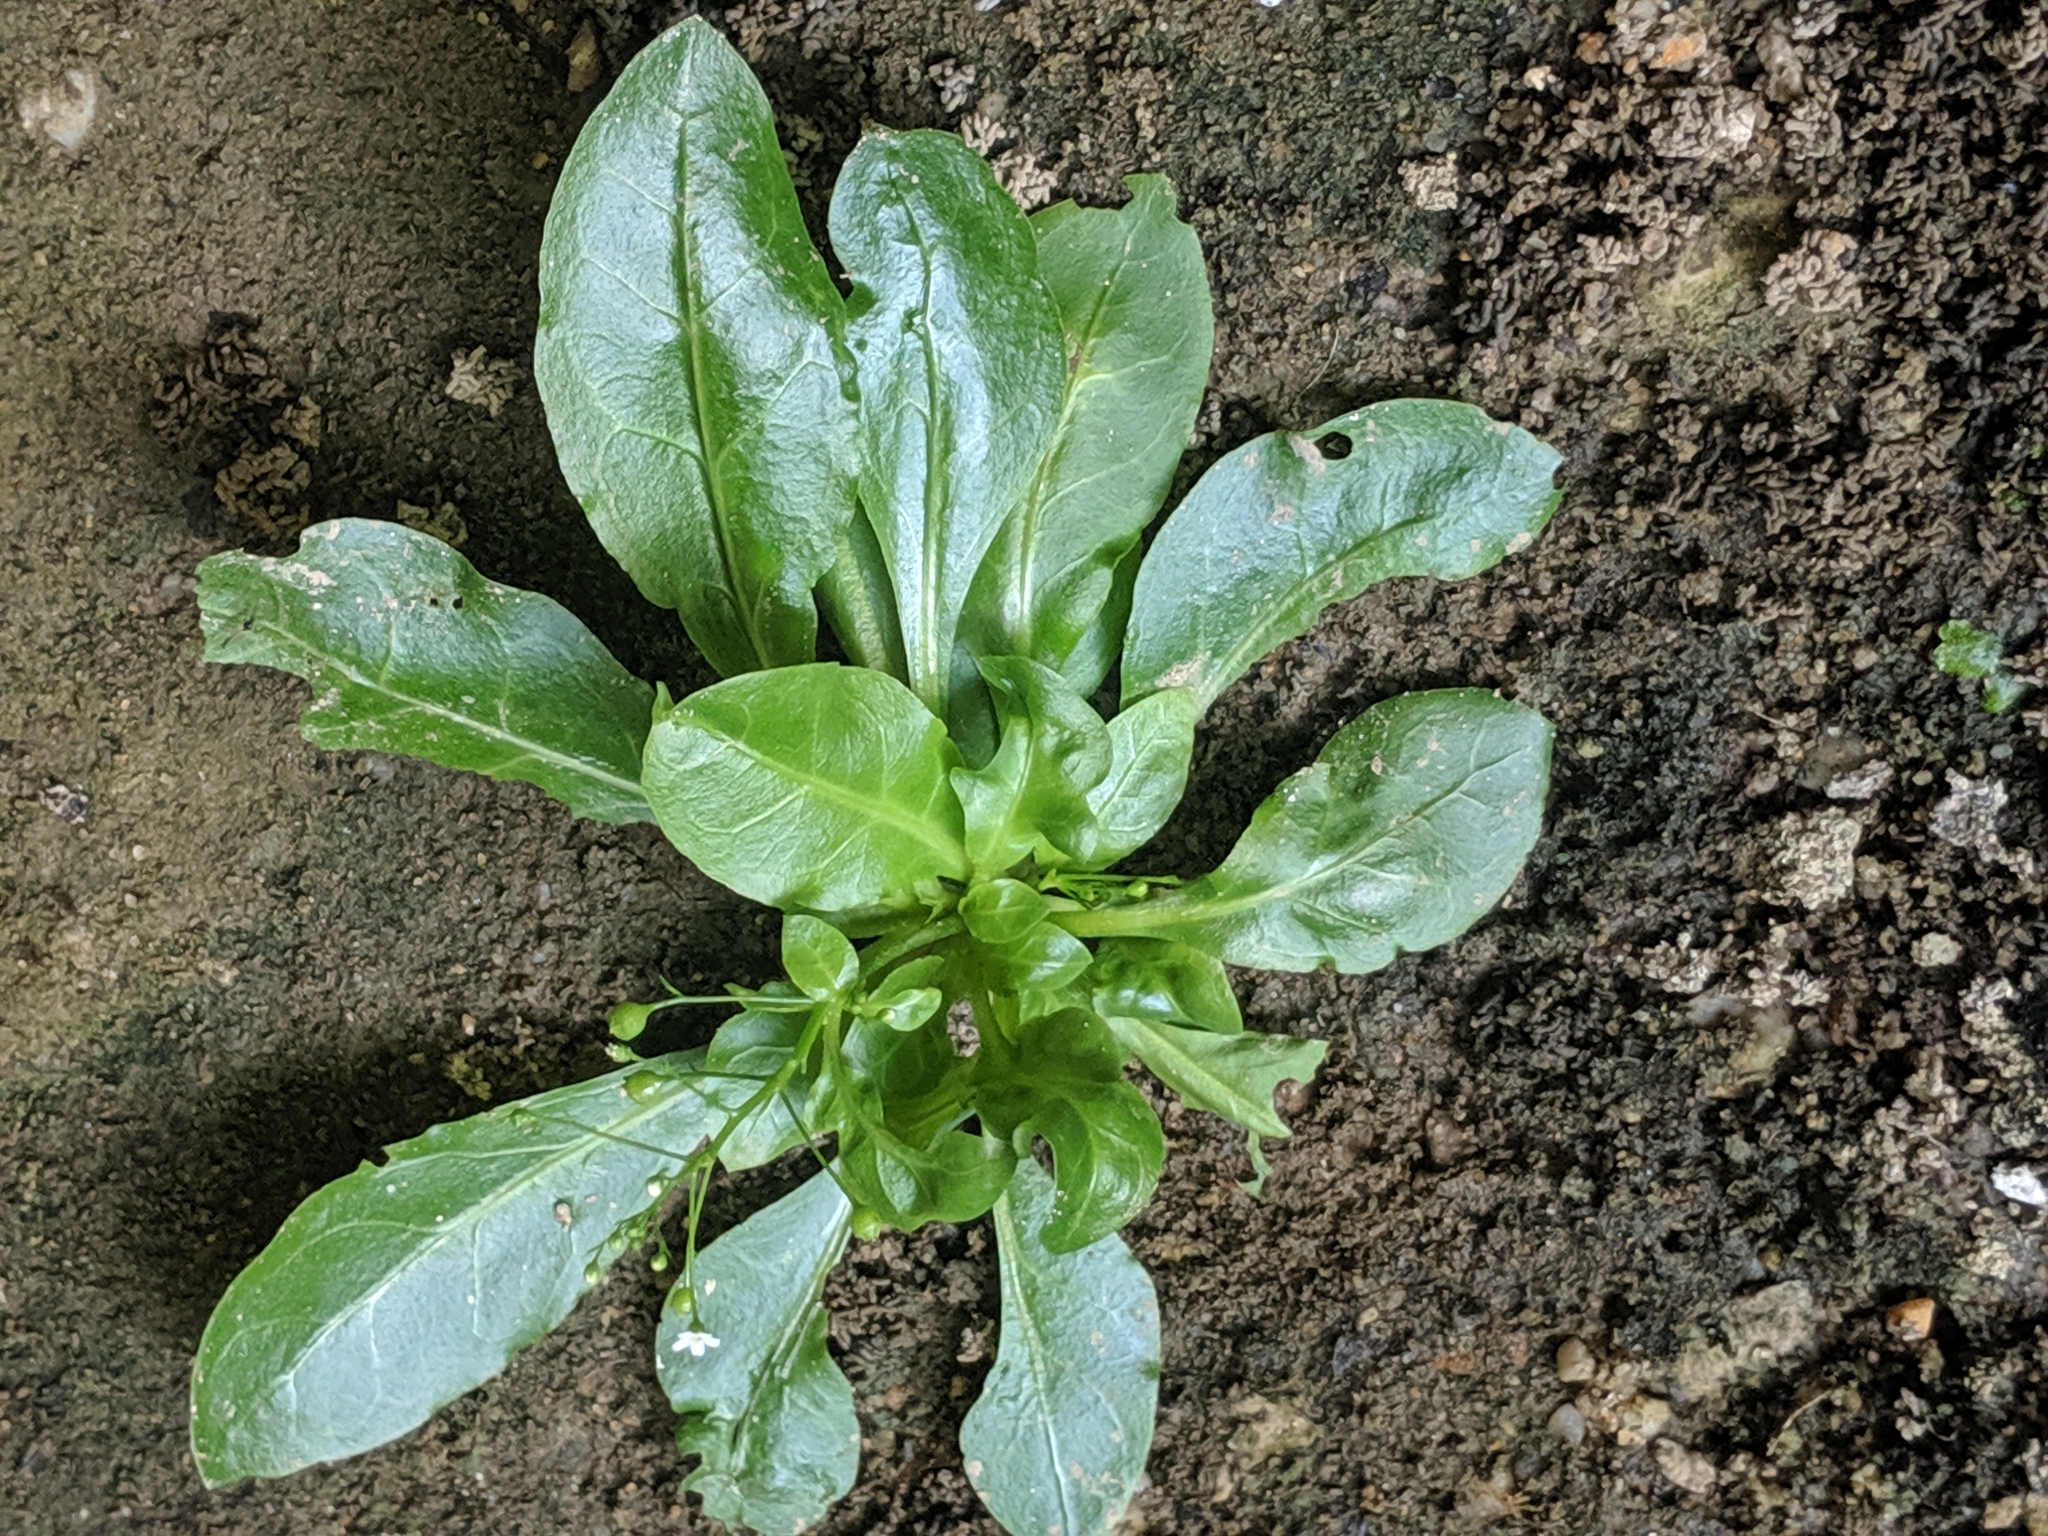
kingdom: Plantae
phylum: Tracheophyta
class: Magnoliopsida
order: Ericales
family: Primulaceae
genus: Samolus
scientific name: Samolus parviflorus
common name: False water pimpernel
